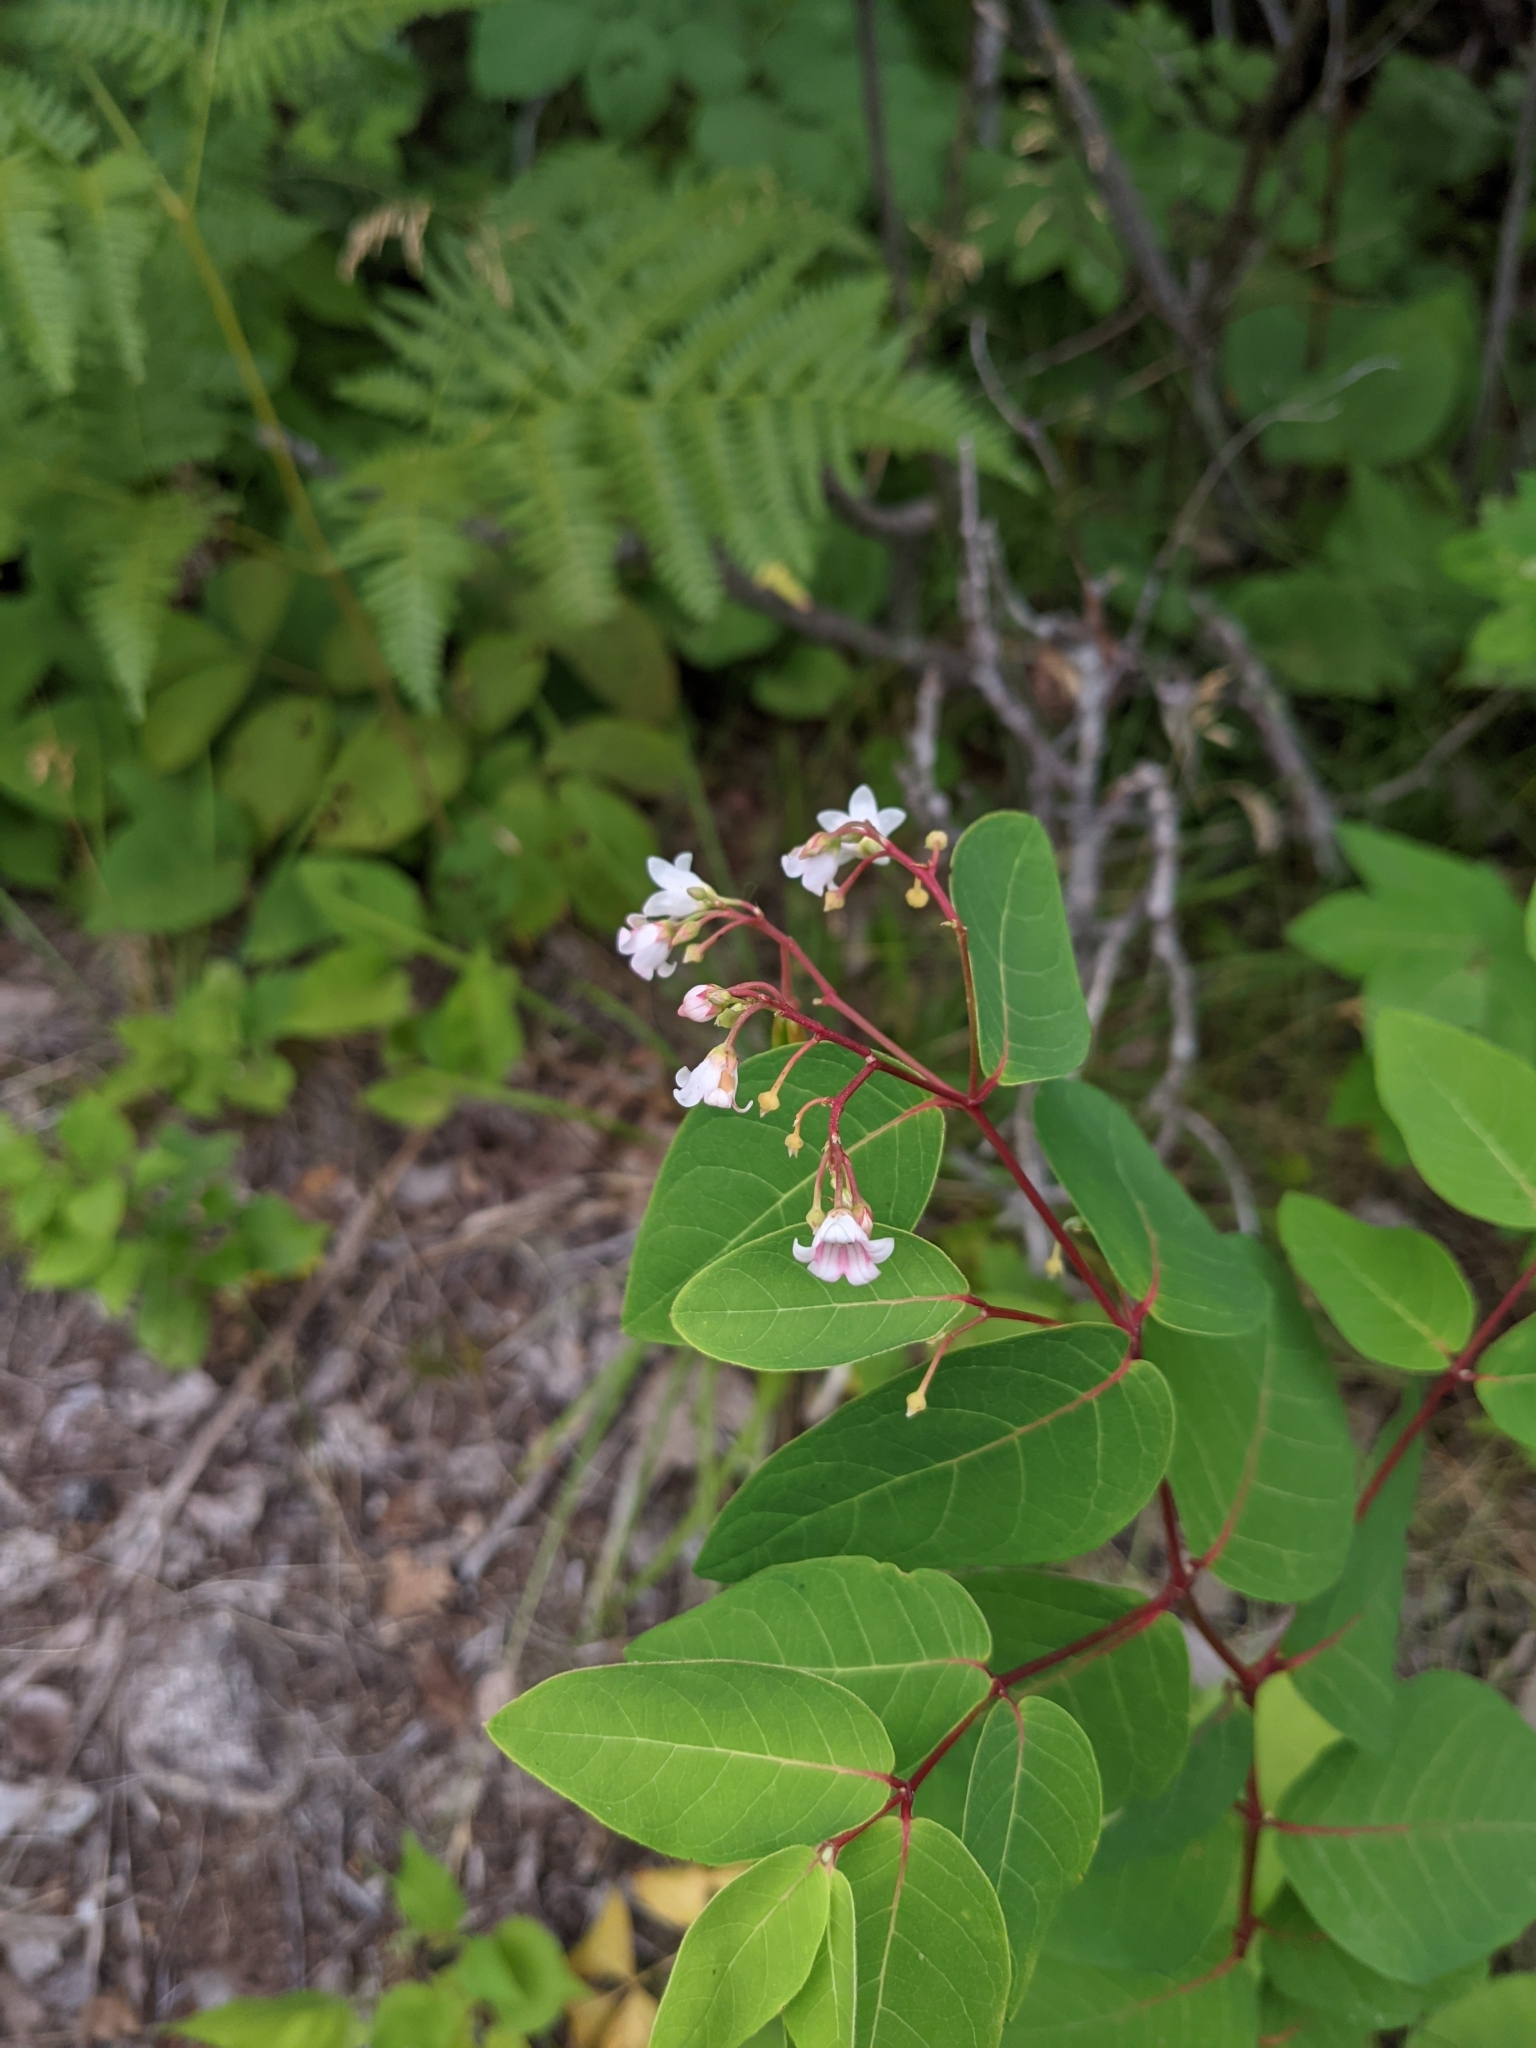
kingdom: Plantae
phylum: Tracheophyta
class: Magnoliopsida
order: Gentianales
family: Apocynaceae
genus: Apocynum
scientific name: Apocynum androsaemifolium
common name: Spreading dogbane
